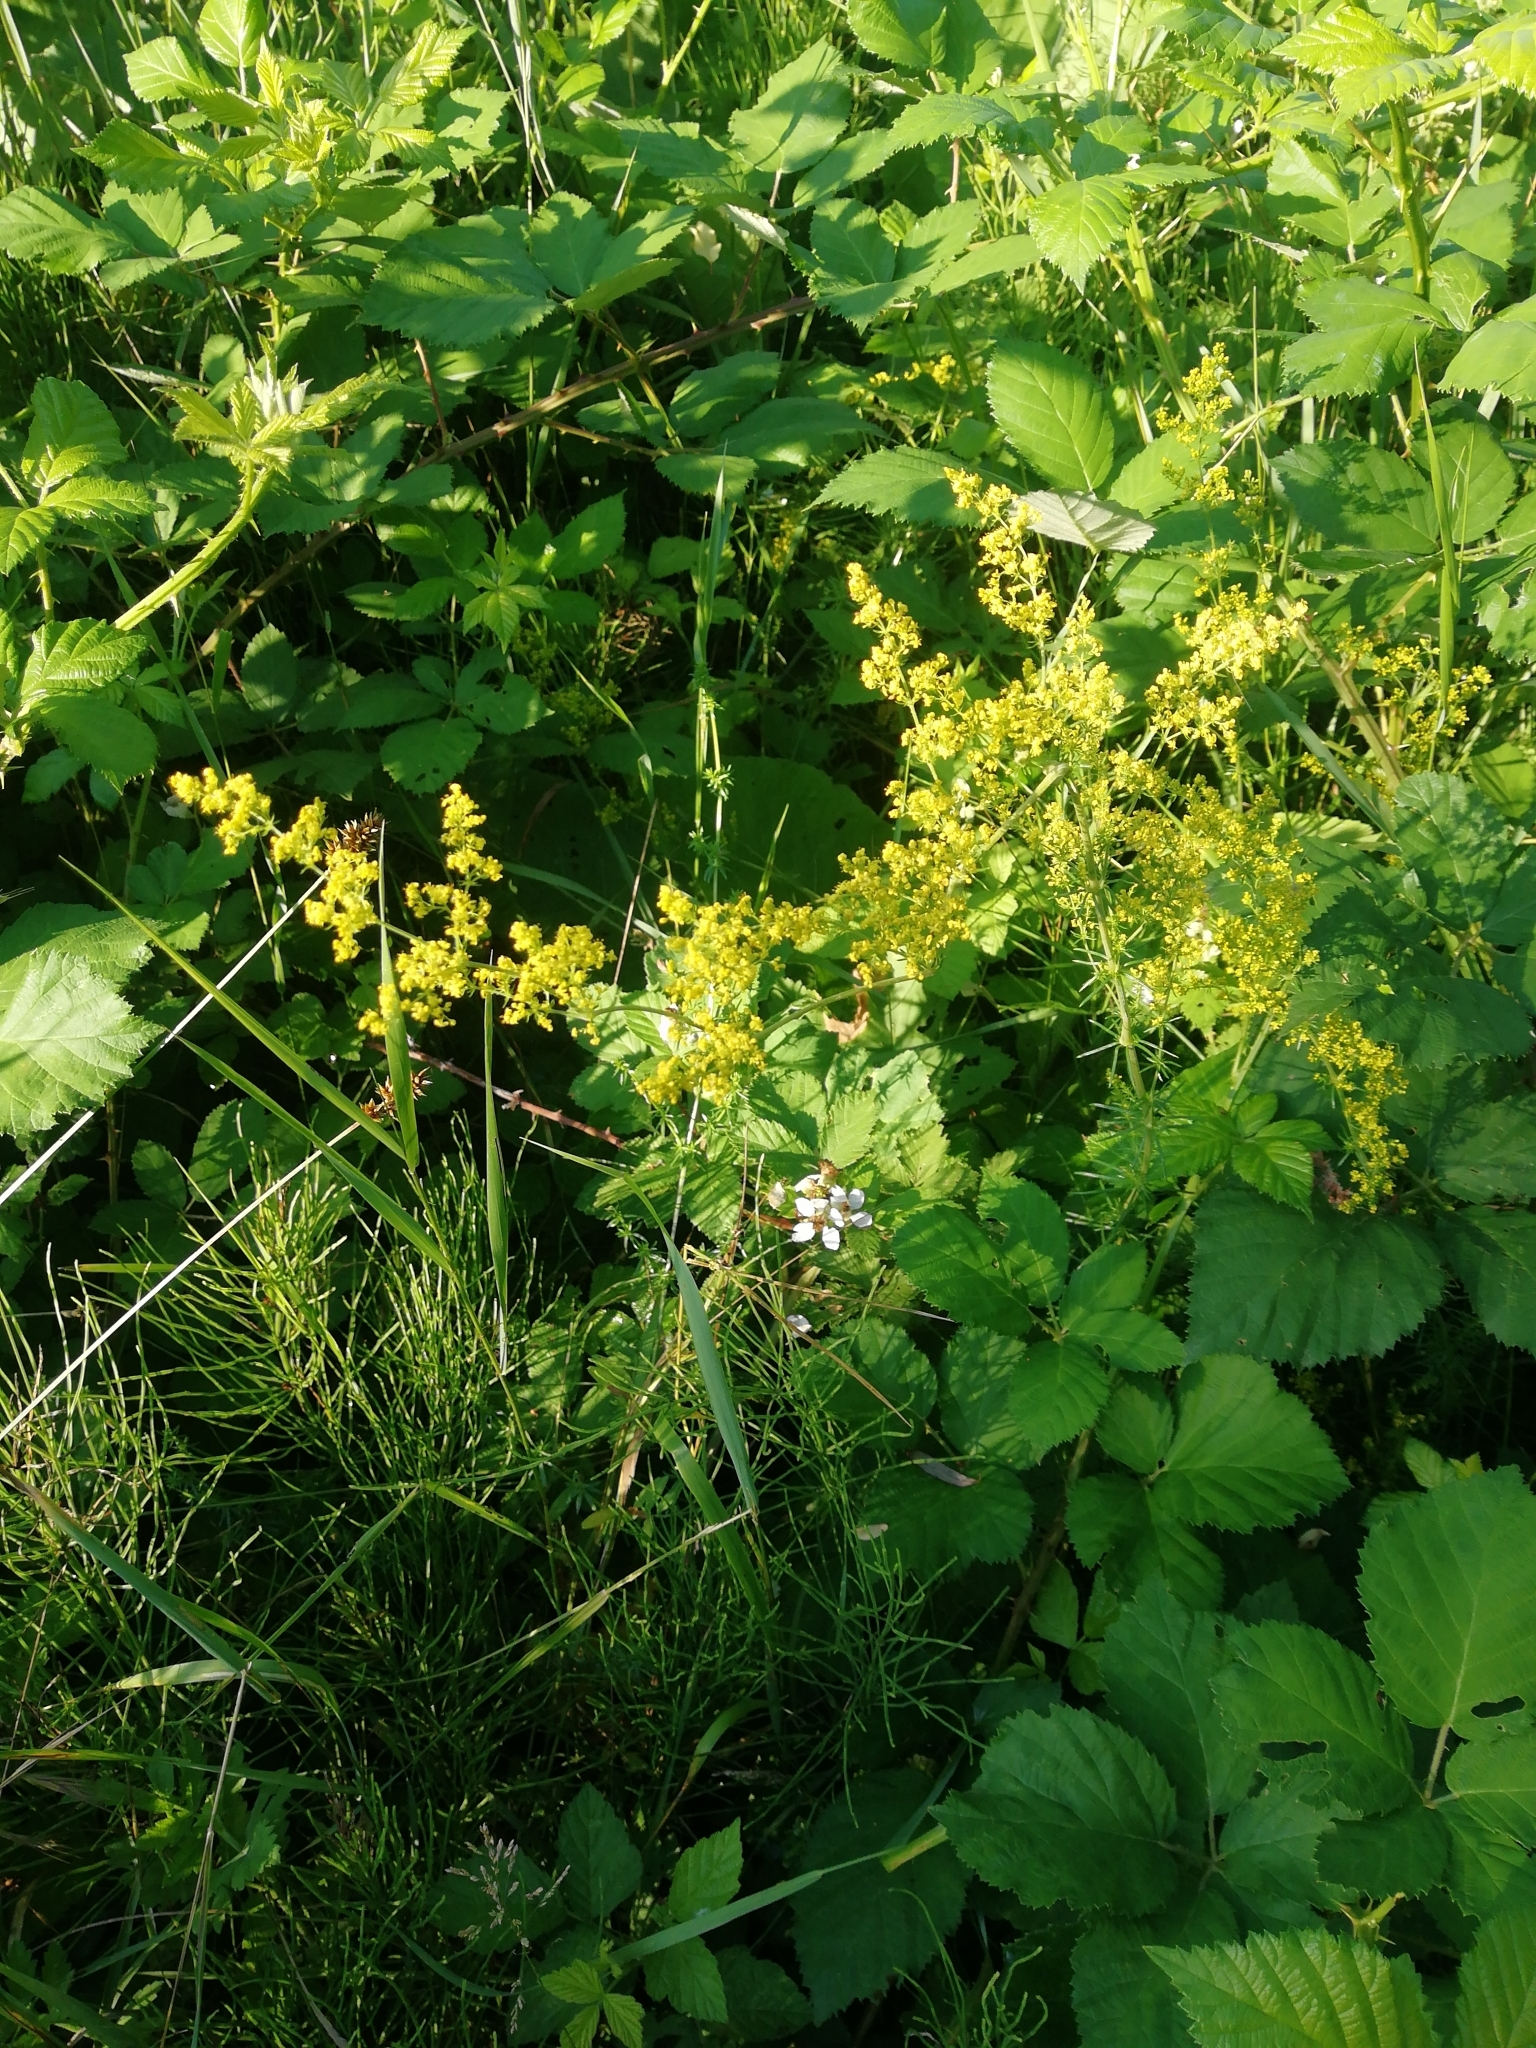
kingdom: Plantae
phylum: Tracheophyta
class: Magnoliopsida
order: Gentianales
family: Rubiaceae
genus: Galium
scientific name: Galium verum
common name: Lady's bedstraw
